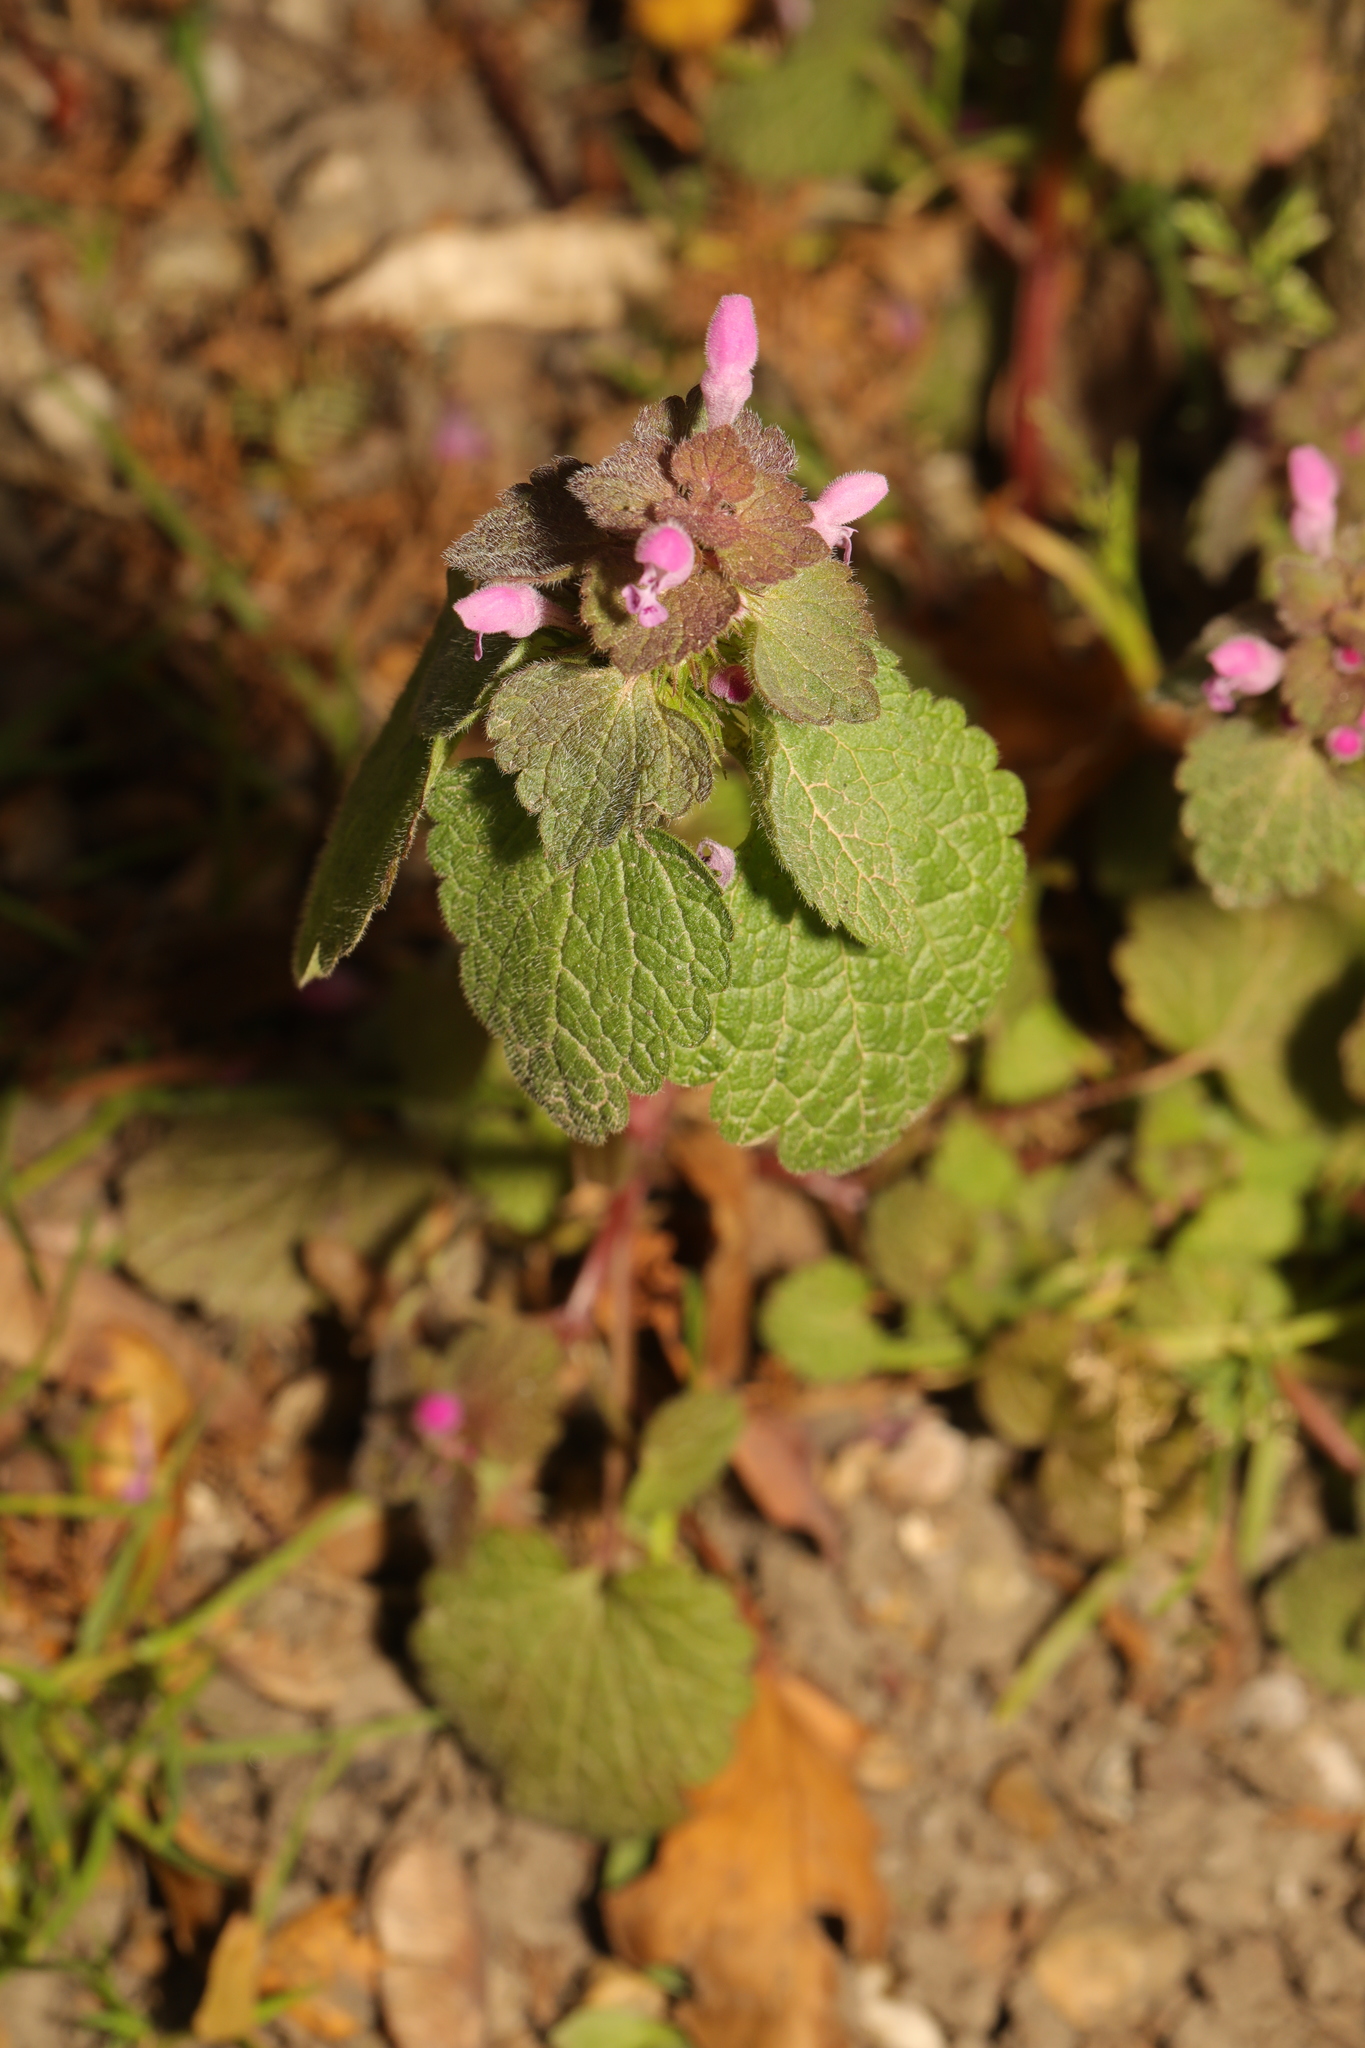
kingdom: Plantae
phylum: Tracheophyta
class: Magnoliopsida
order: Lamiales
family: Lamiaceae
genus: Lamium
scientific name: Lamium purpureum
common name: Red dead-nettle
